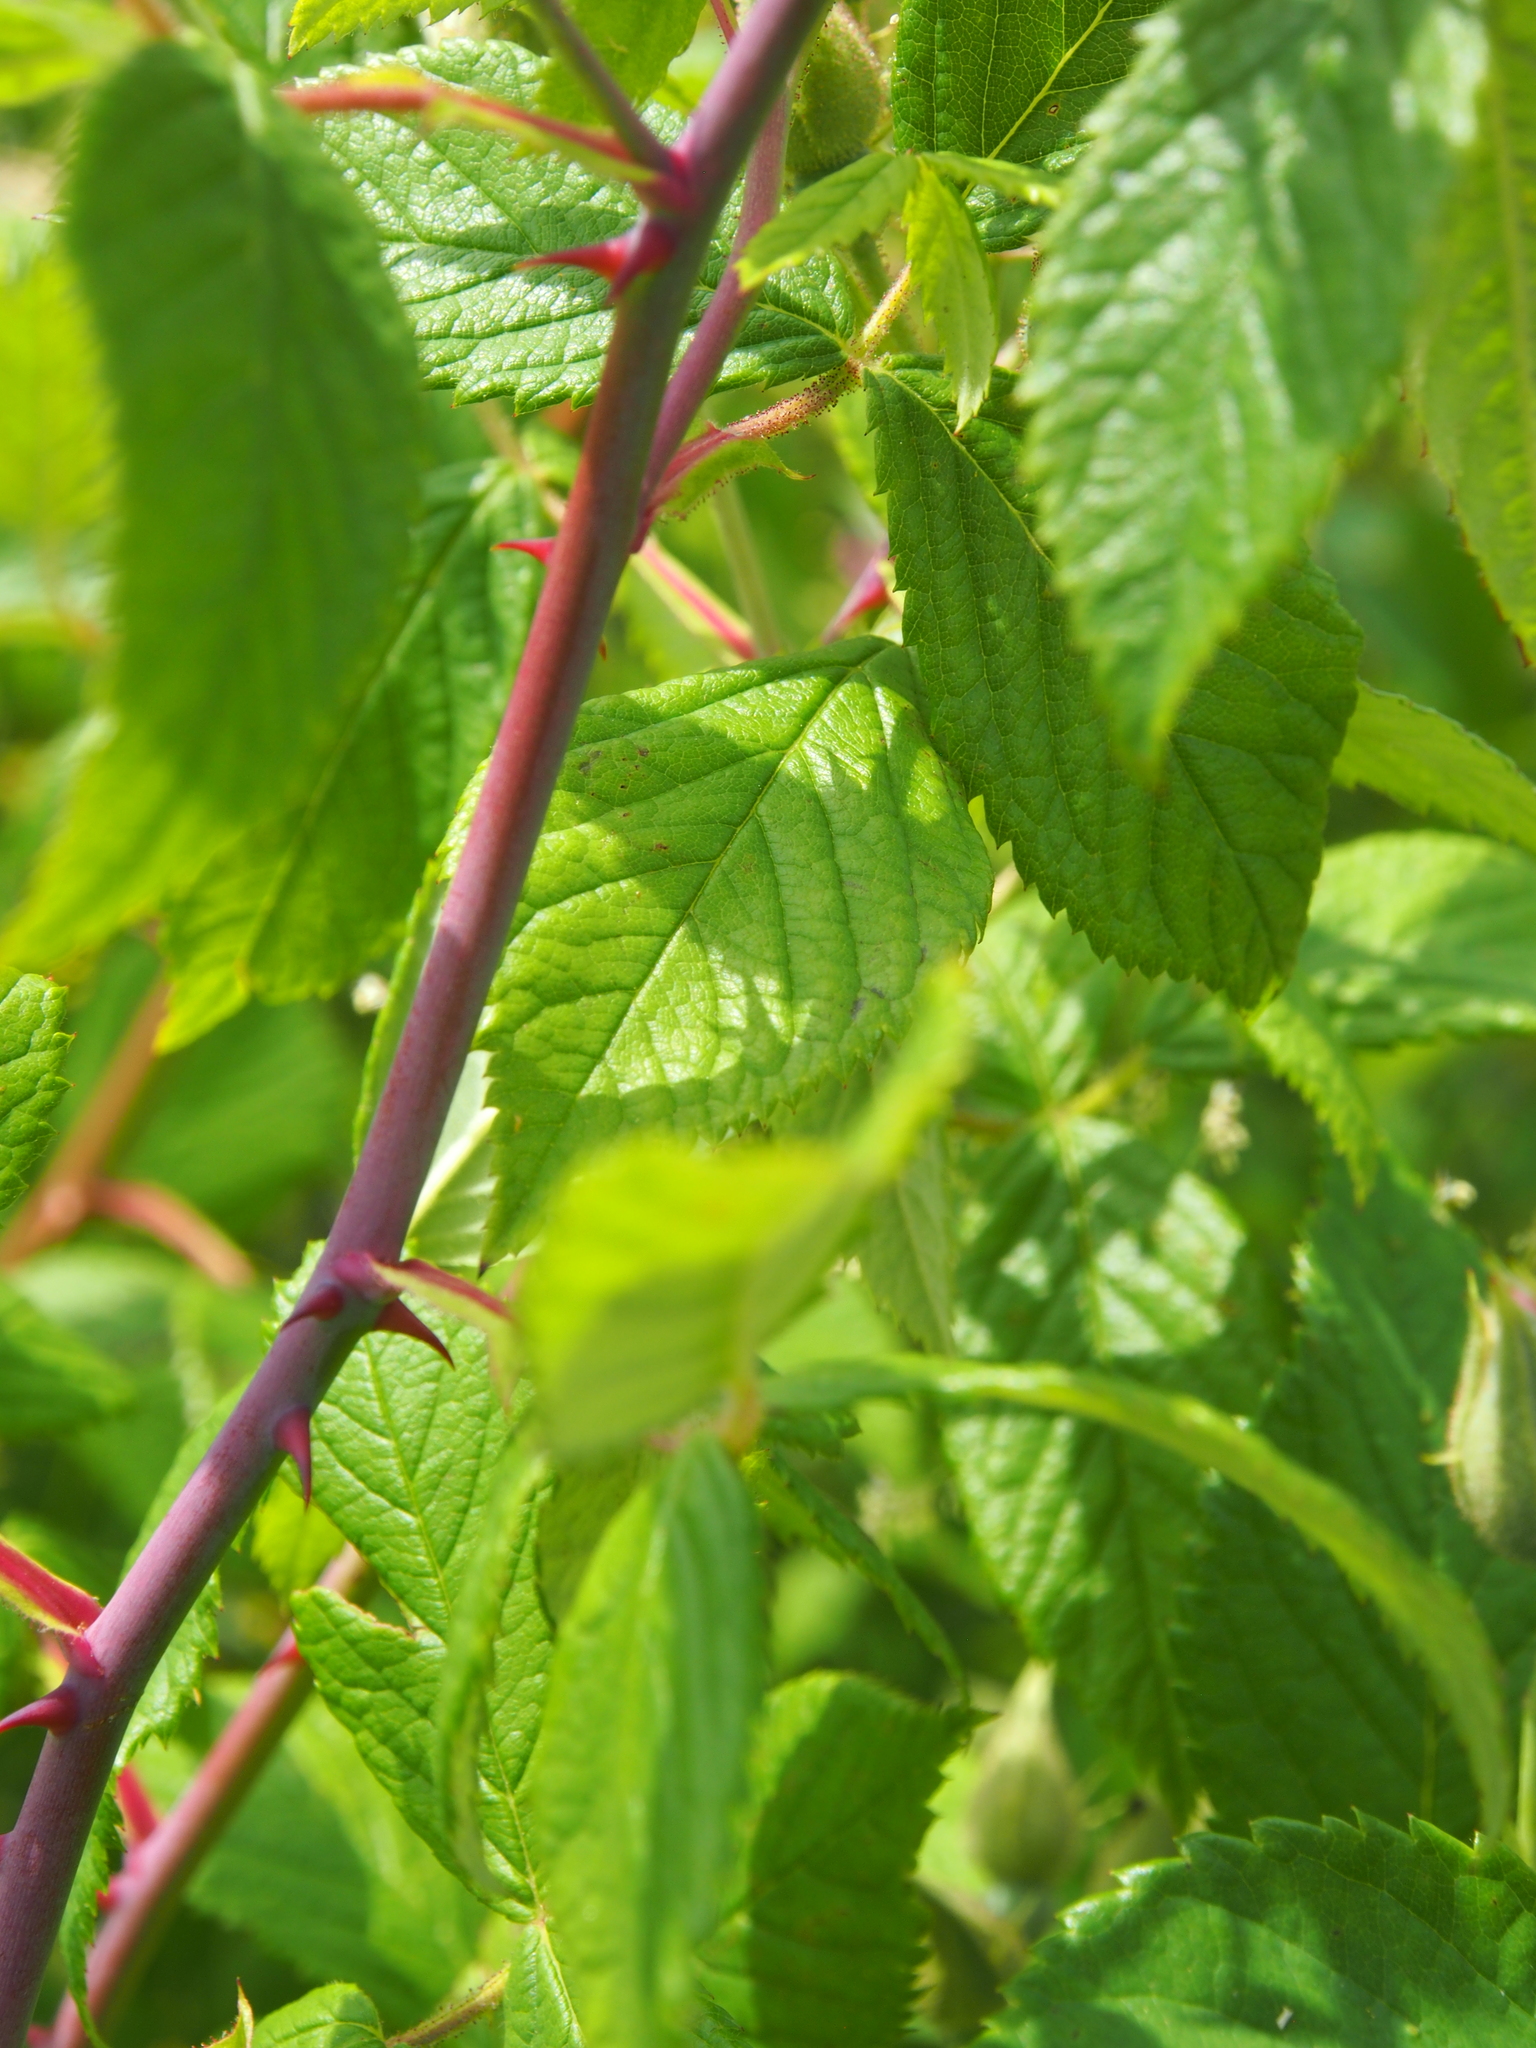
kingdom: Plantae
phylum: Tracheophyta
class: Magnoliopsida
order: Rosales
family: Rosaceae
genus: Rosa
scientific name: Rosa setigera
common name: Prairie rose
